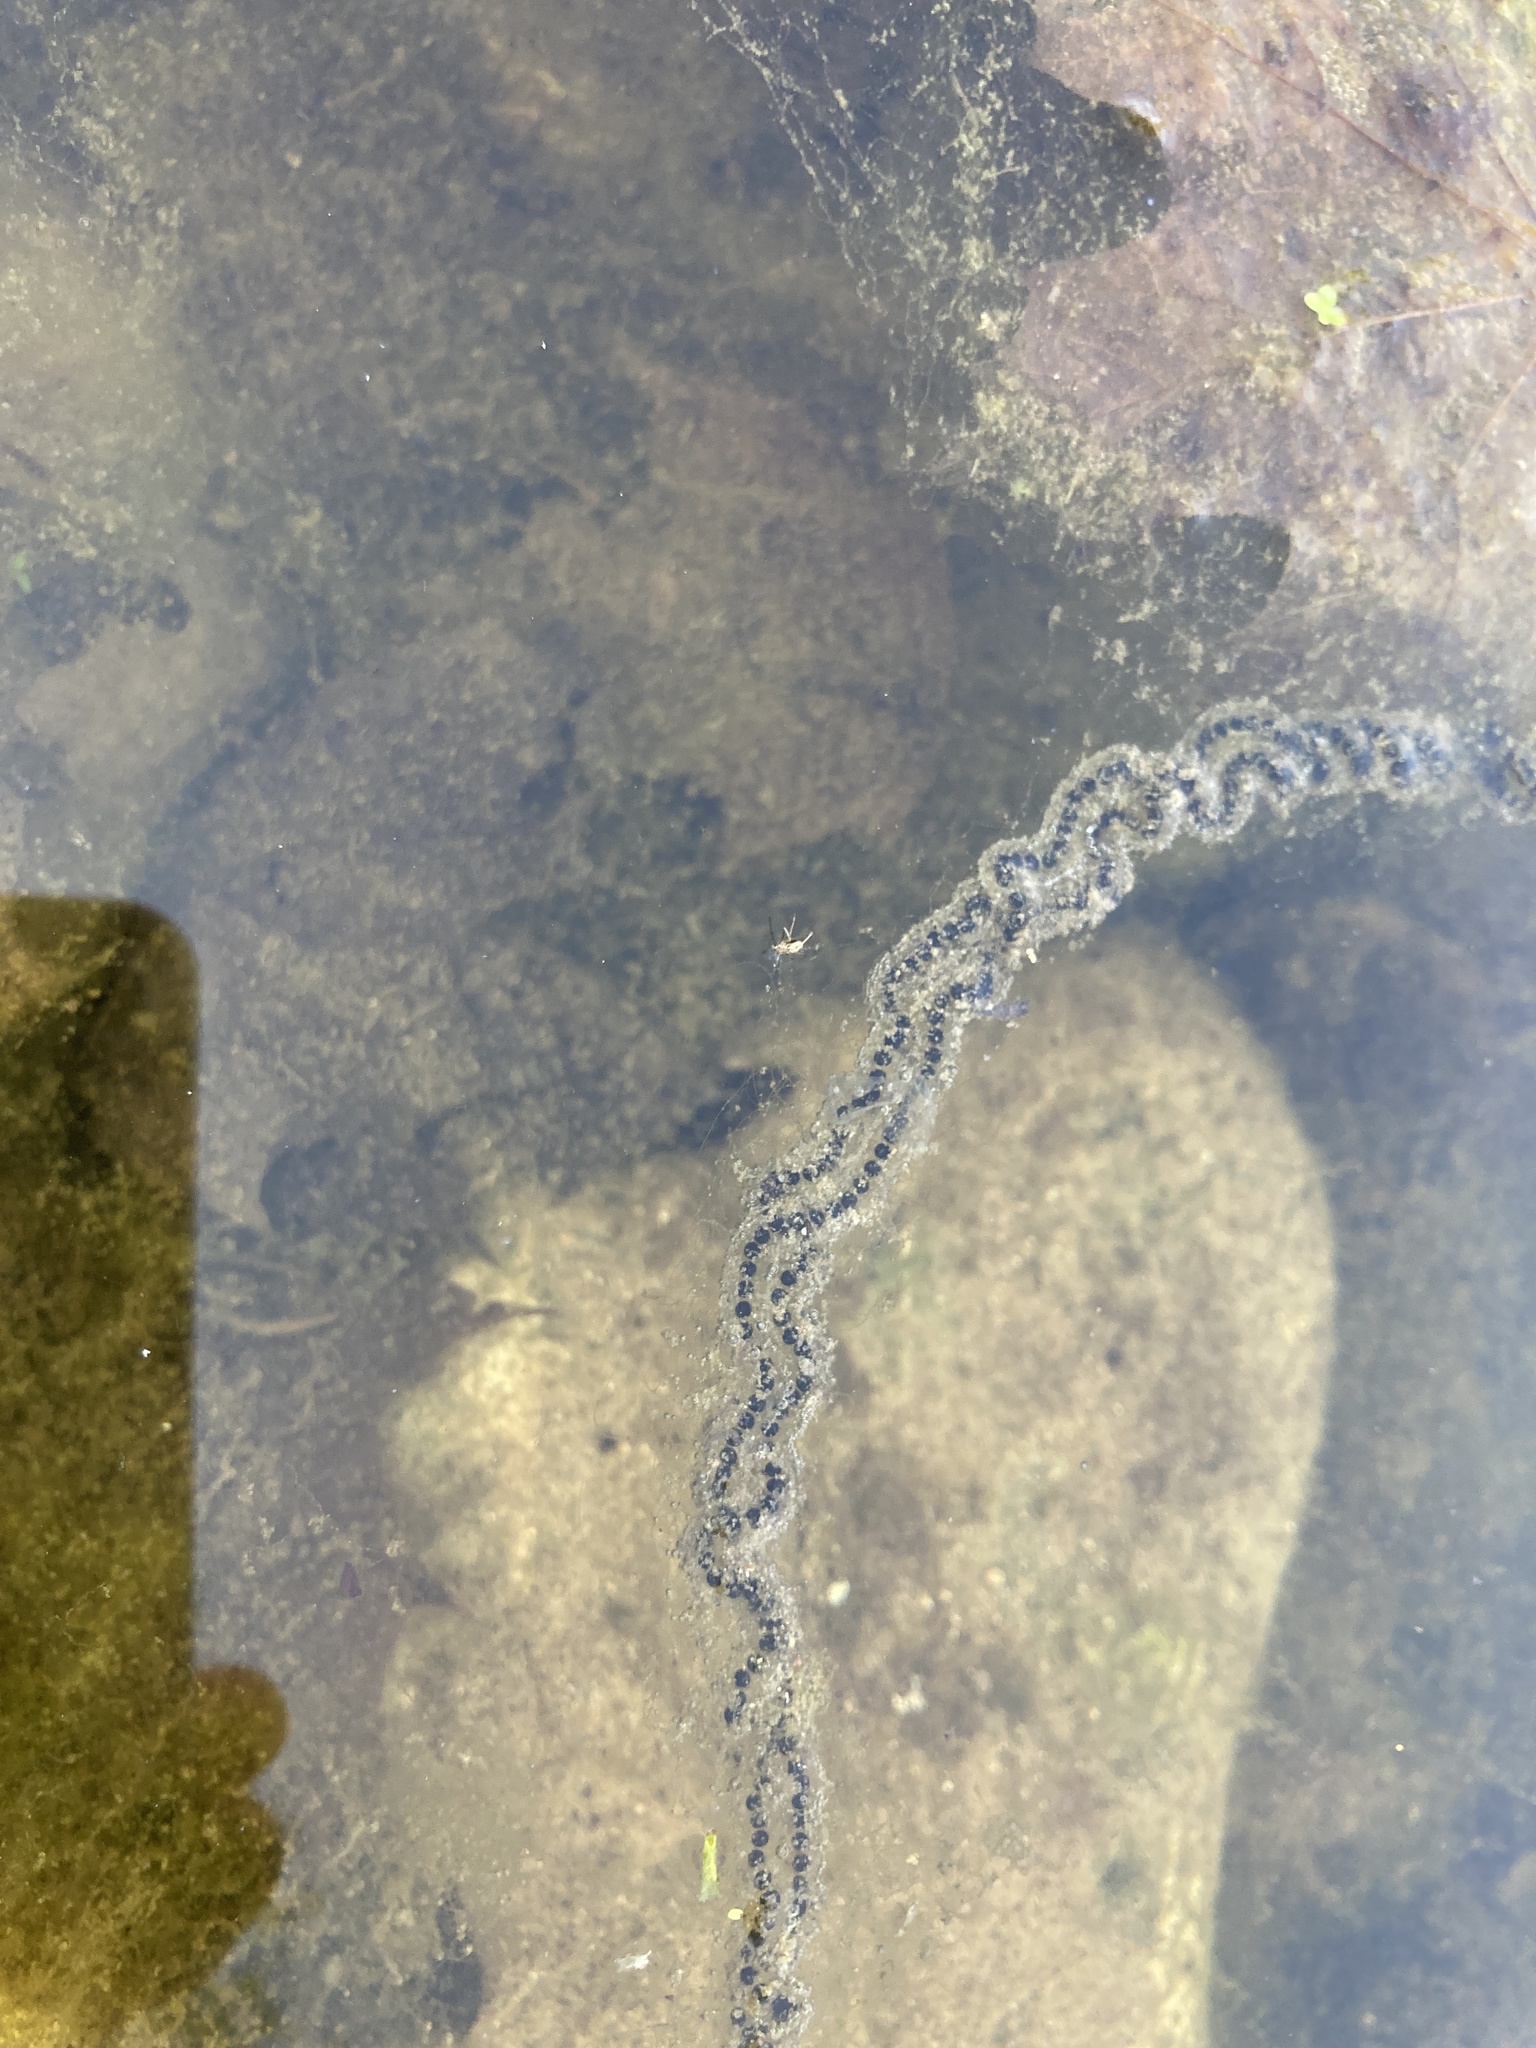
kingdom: Animalia
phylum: Chordata
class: Amphibia
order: Anura
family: Bufonidae
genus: Anaxyrus
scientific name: Anaxyrus americanus
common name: American toad
